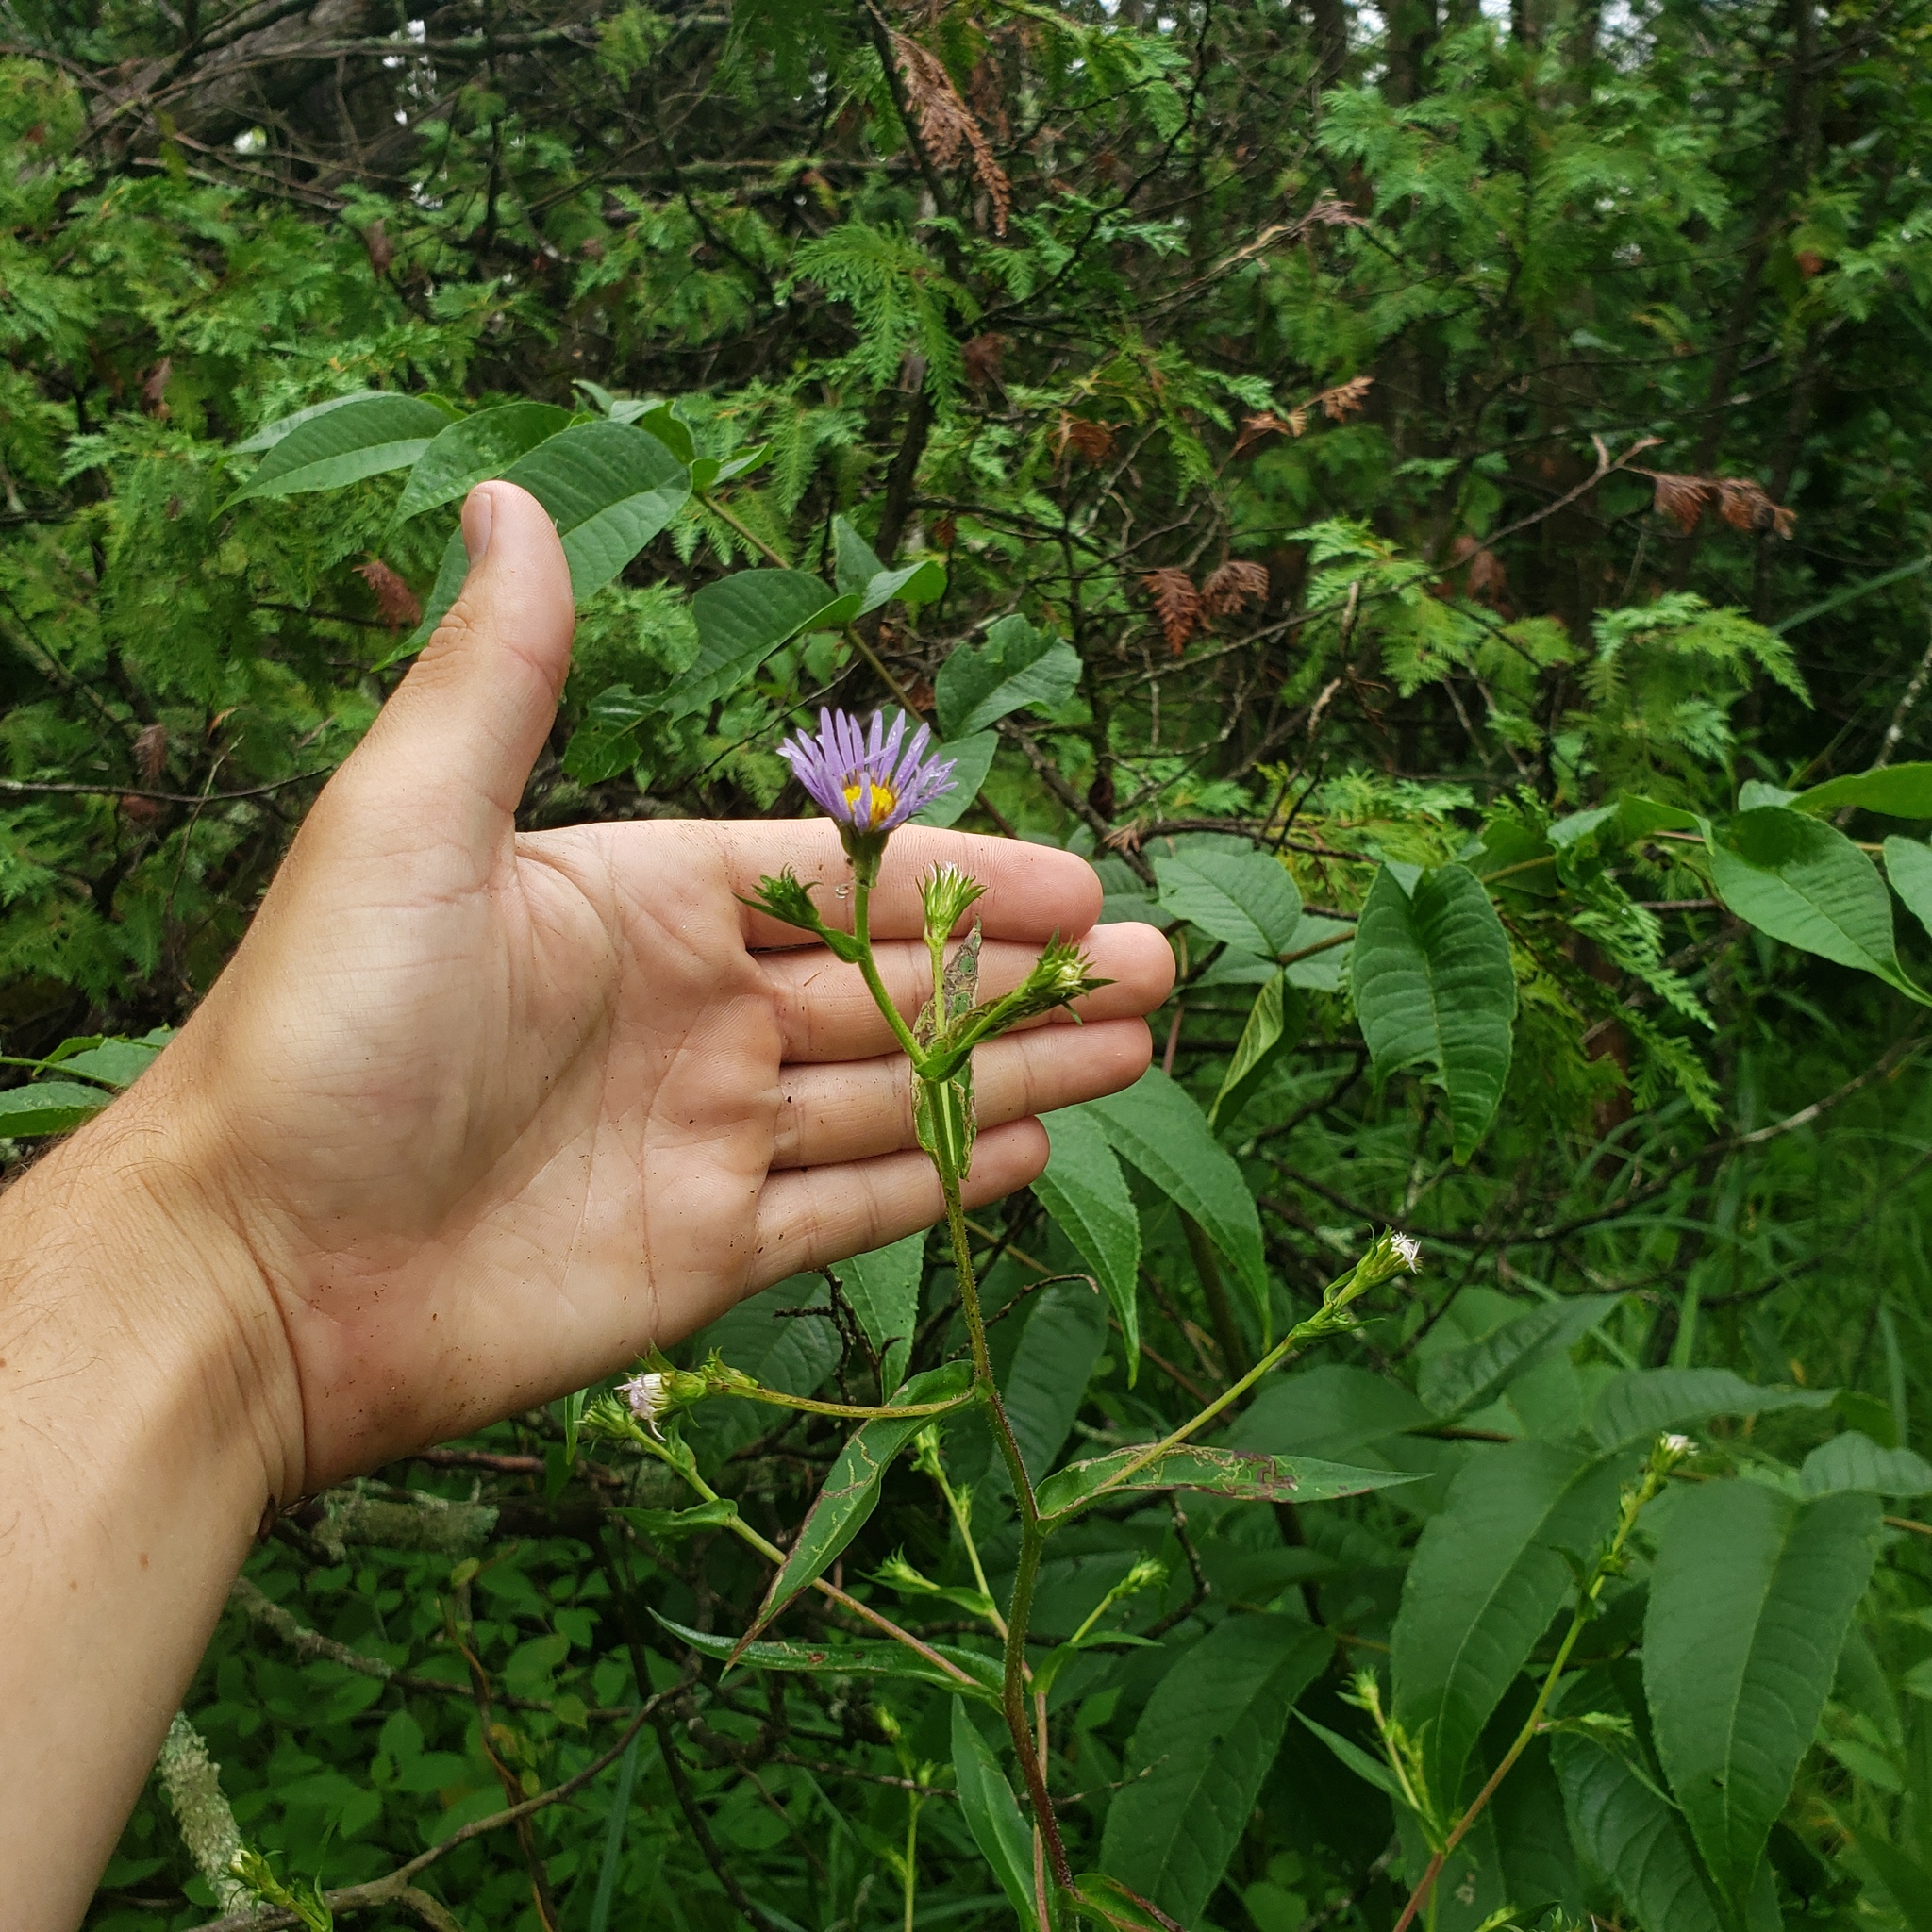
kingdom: Plantae
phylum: Tracheophyta
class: Magnoliopsida
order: Asterales
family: Asteraceae
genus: Symphyotrichum
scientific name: Symphyotrichum puniceum
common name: Bog aster
